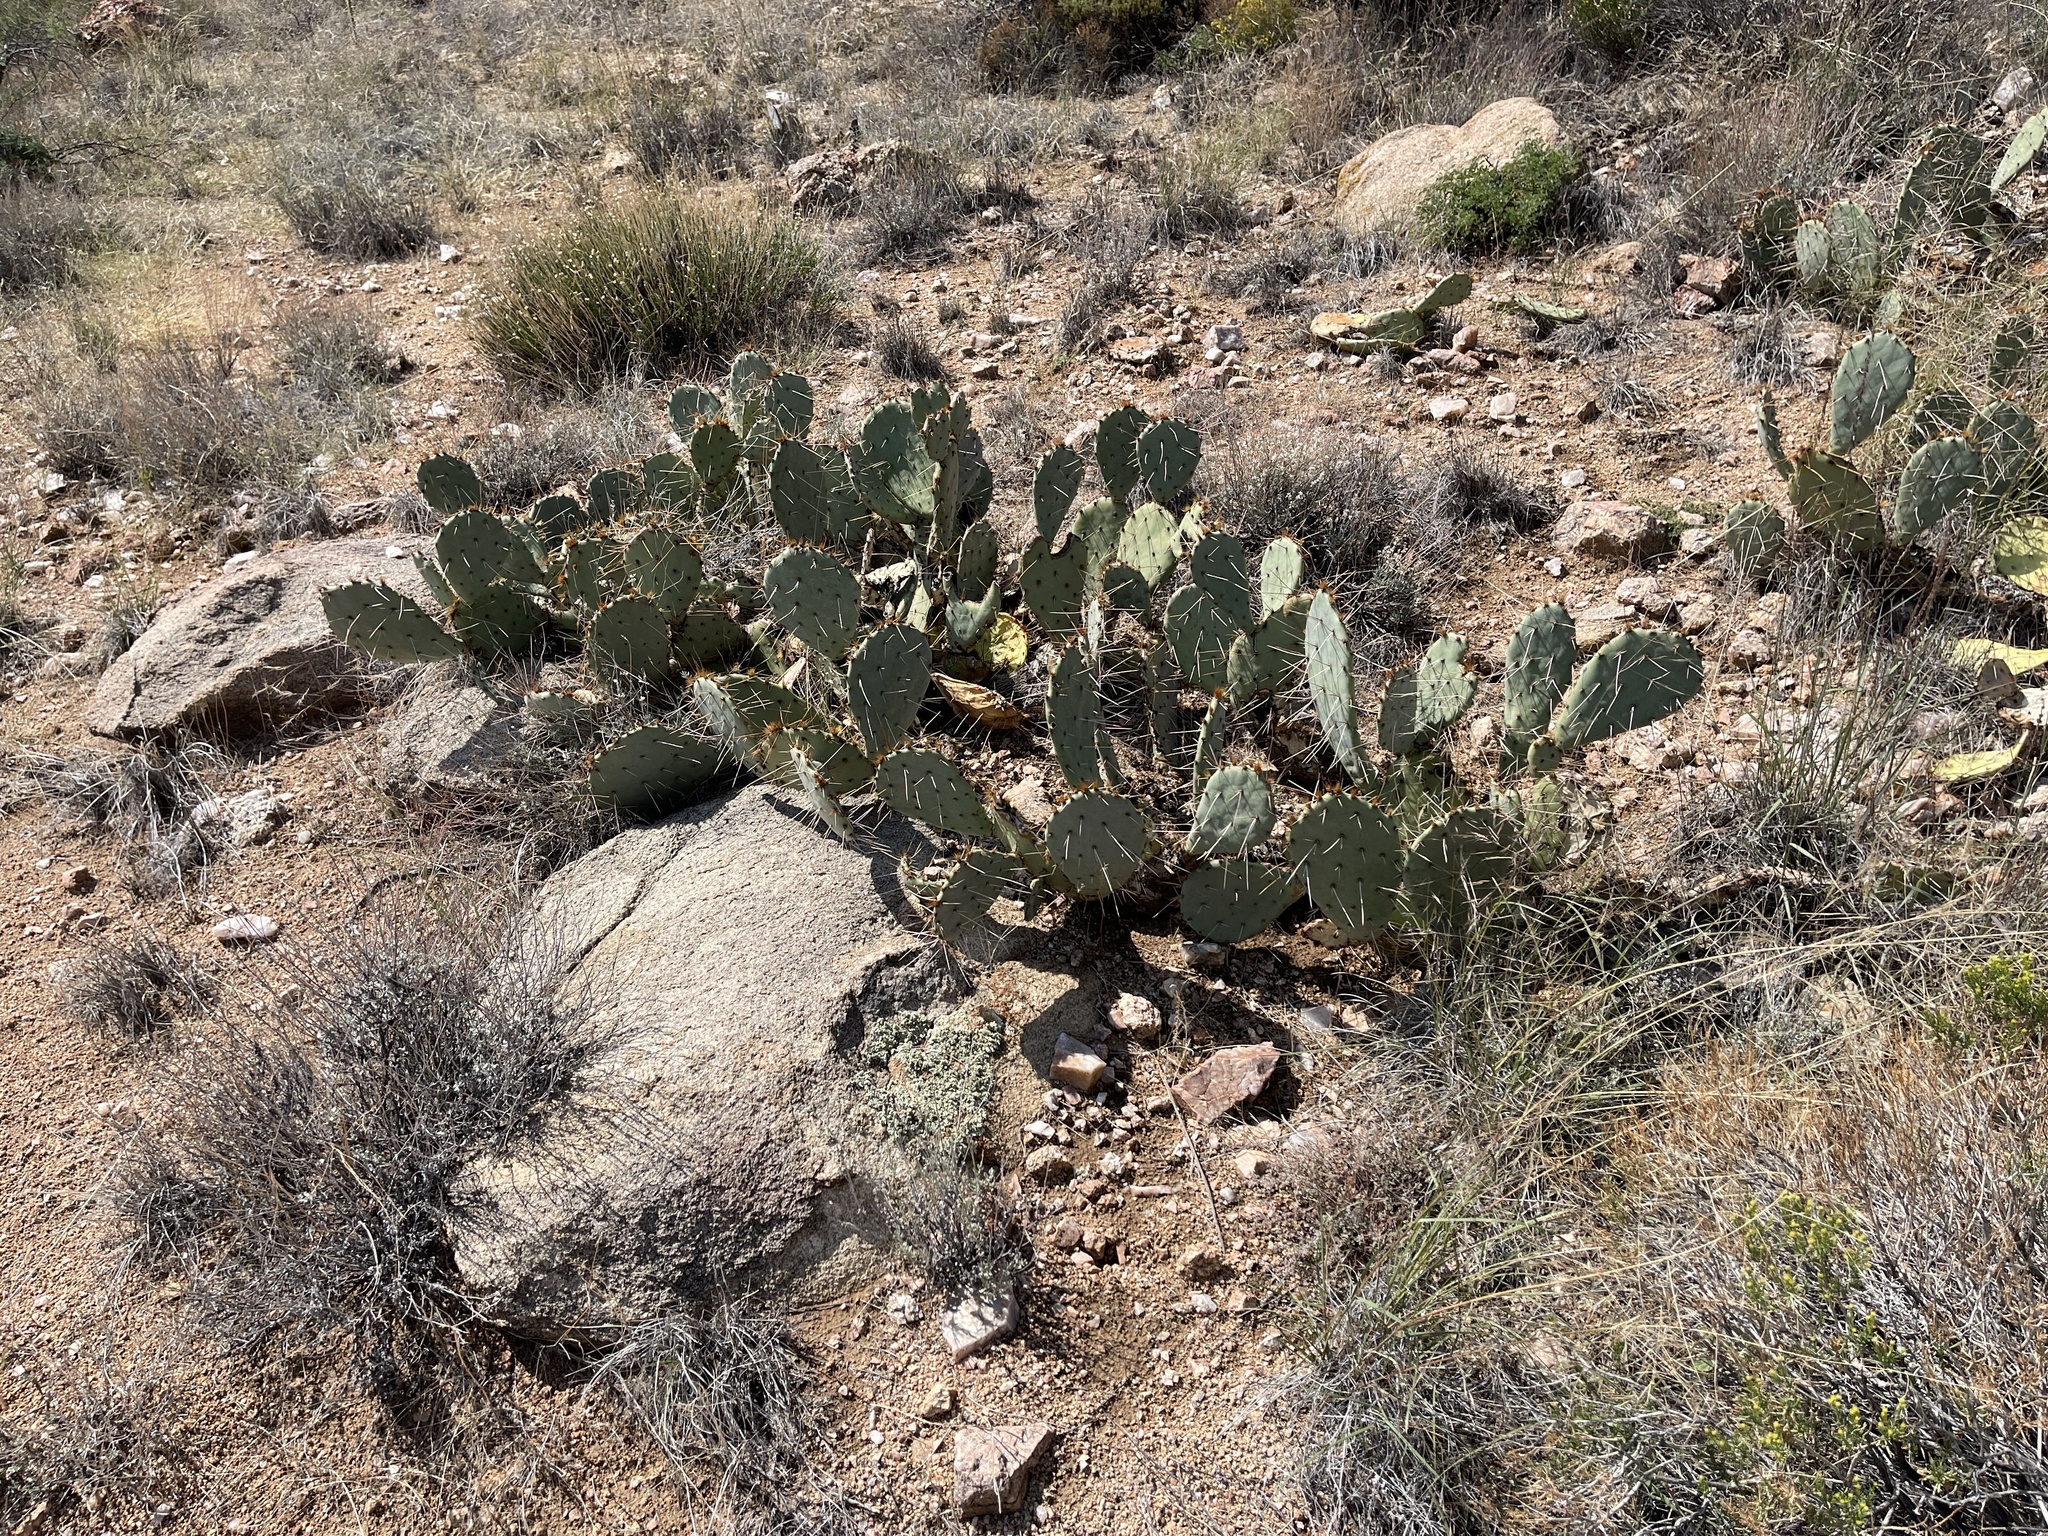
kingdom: Plantae
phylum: Tracheophyta
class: Magnoliopsida
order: Caryophyllales
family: Cactaceae
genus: Opuntia
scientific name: Opuntia phaeacantha
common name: New mexico prickly-pear
